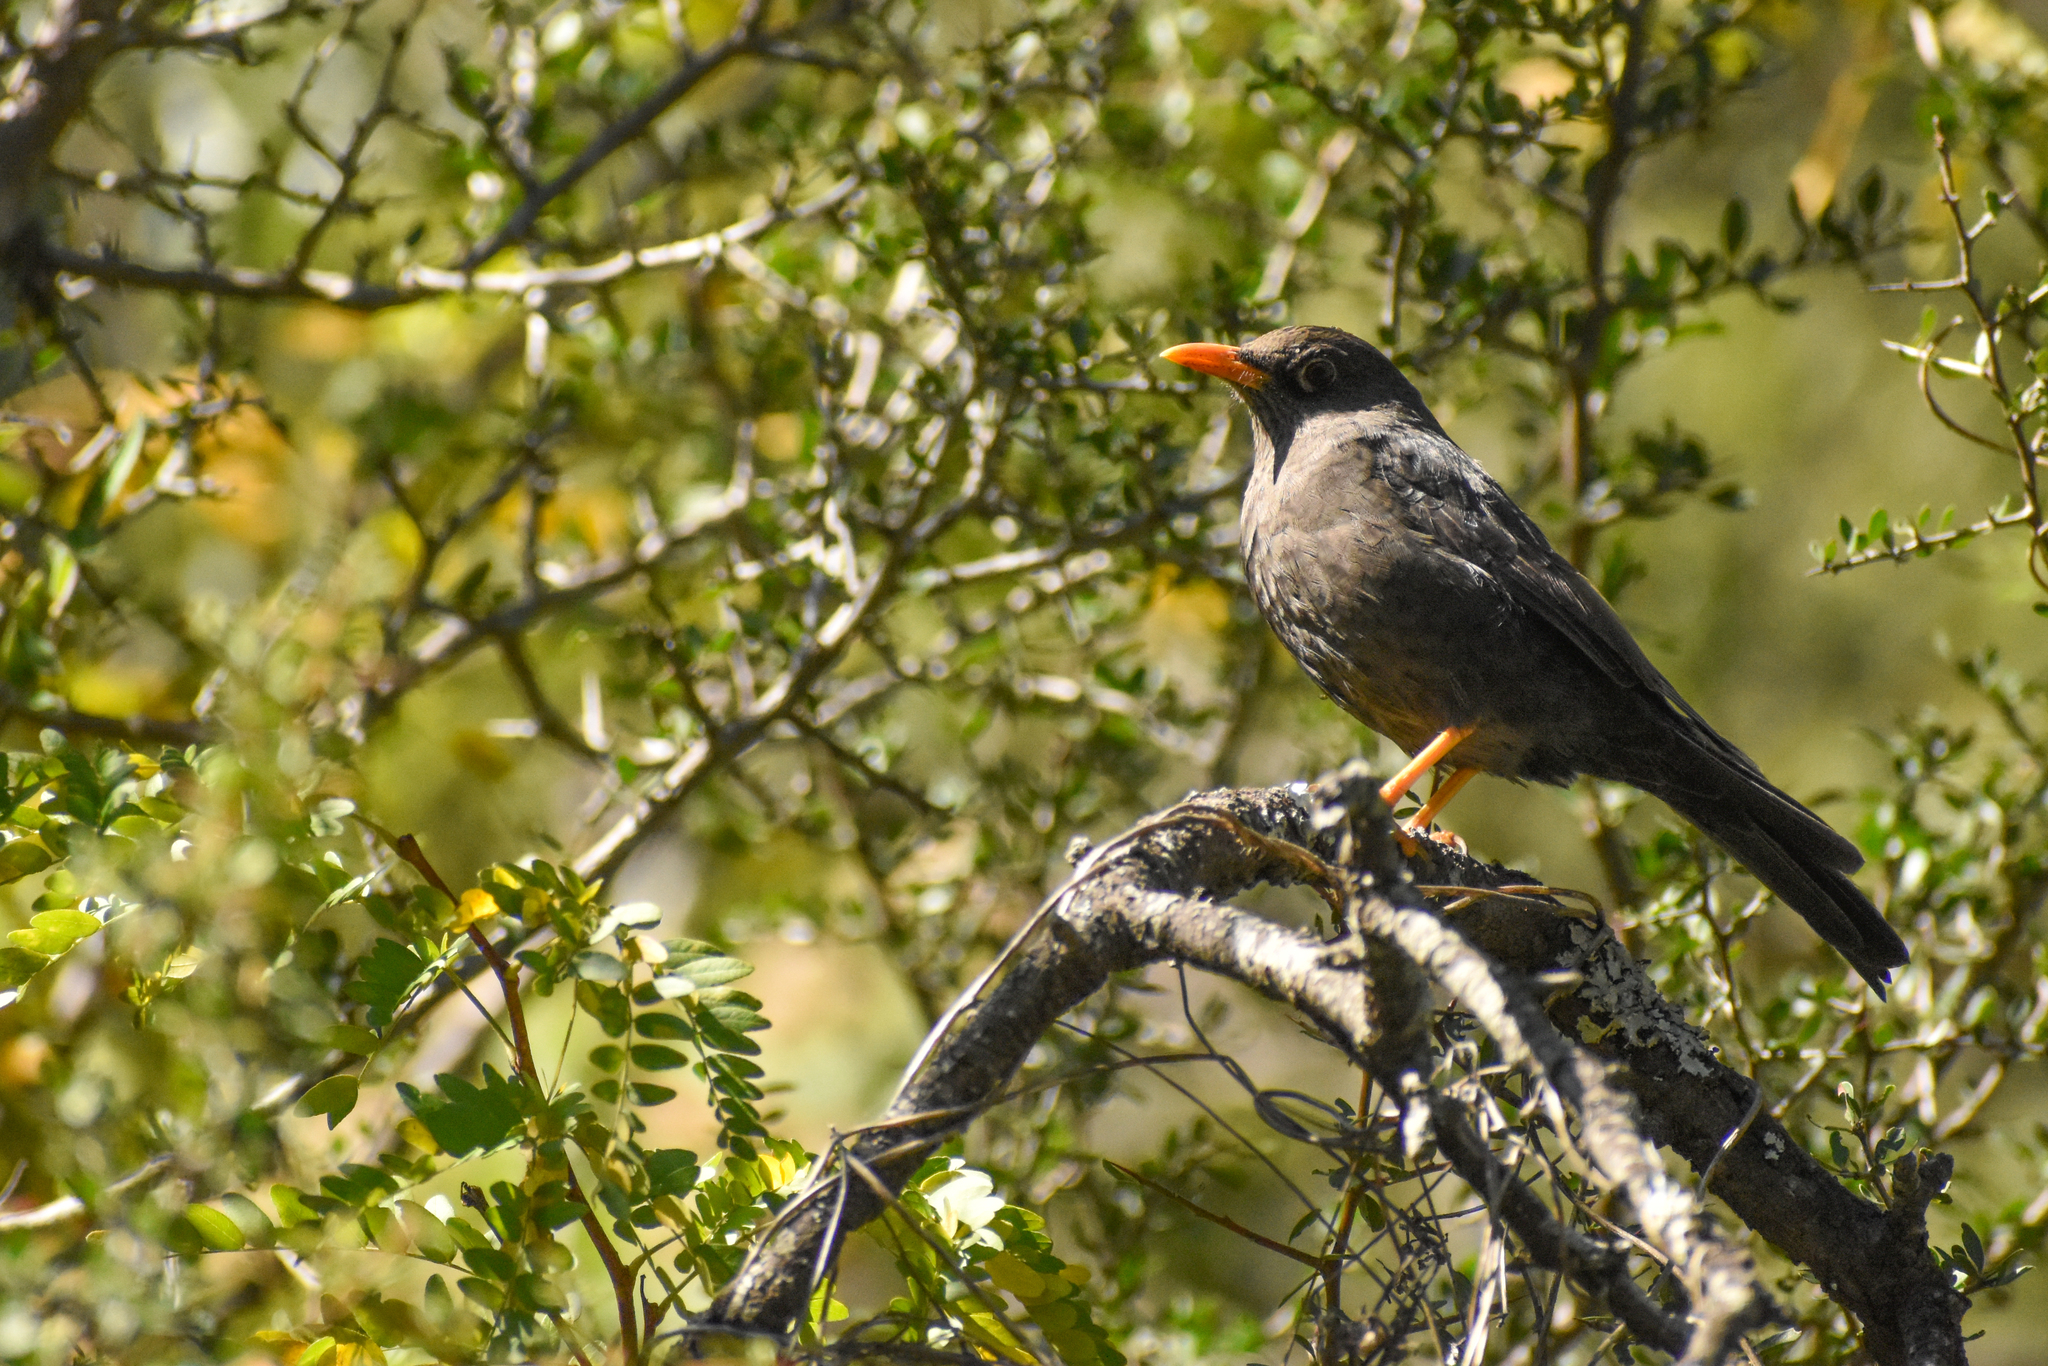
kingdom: Animalia
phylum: Chordata
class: Aves
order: Passeriformes
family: Turdidae
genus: Turdus
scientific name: Turdus chiguanco
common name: Chiguanco thrush
